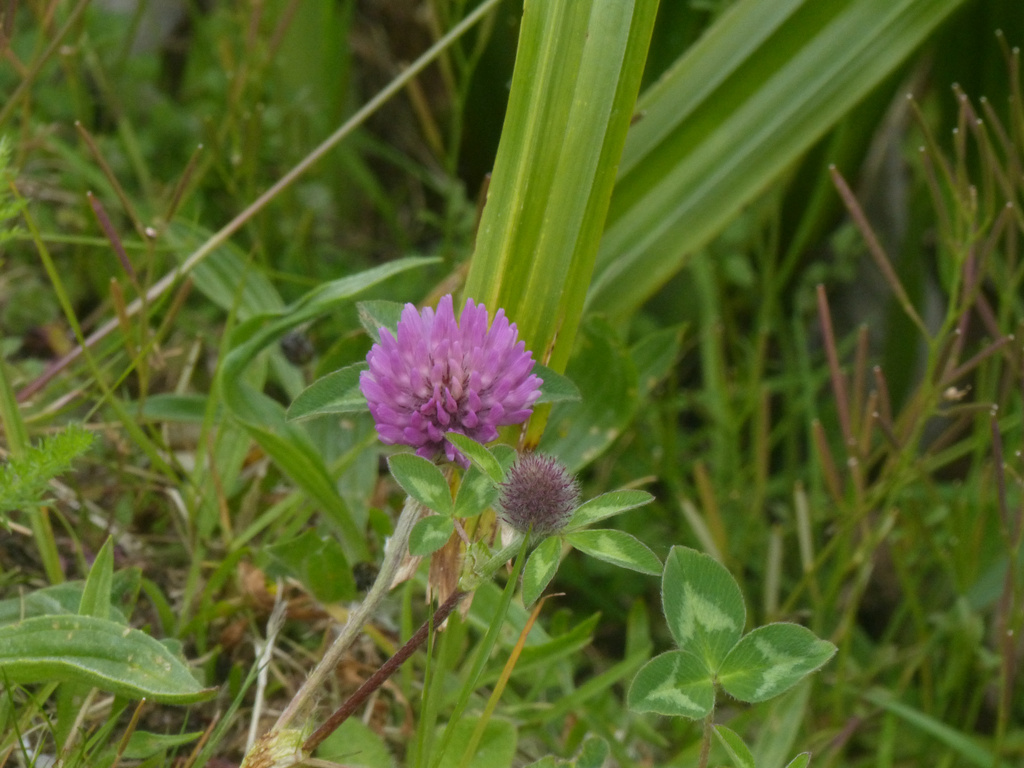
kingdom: Plantae
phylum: Tracheophyta
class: Magnoliopsida
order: Fabales
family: Fabaceae
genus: Trifolium
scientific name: Trifolium pratense
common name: Red clover
